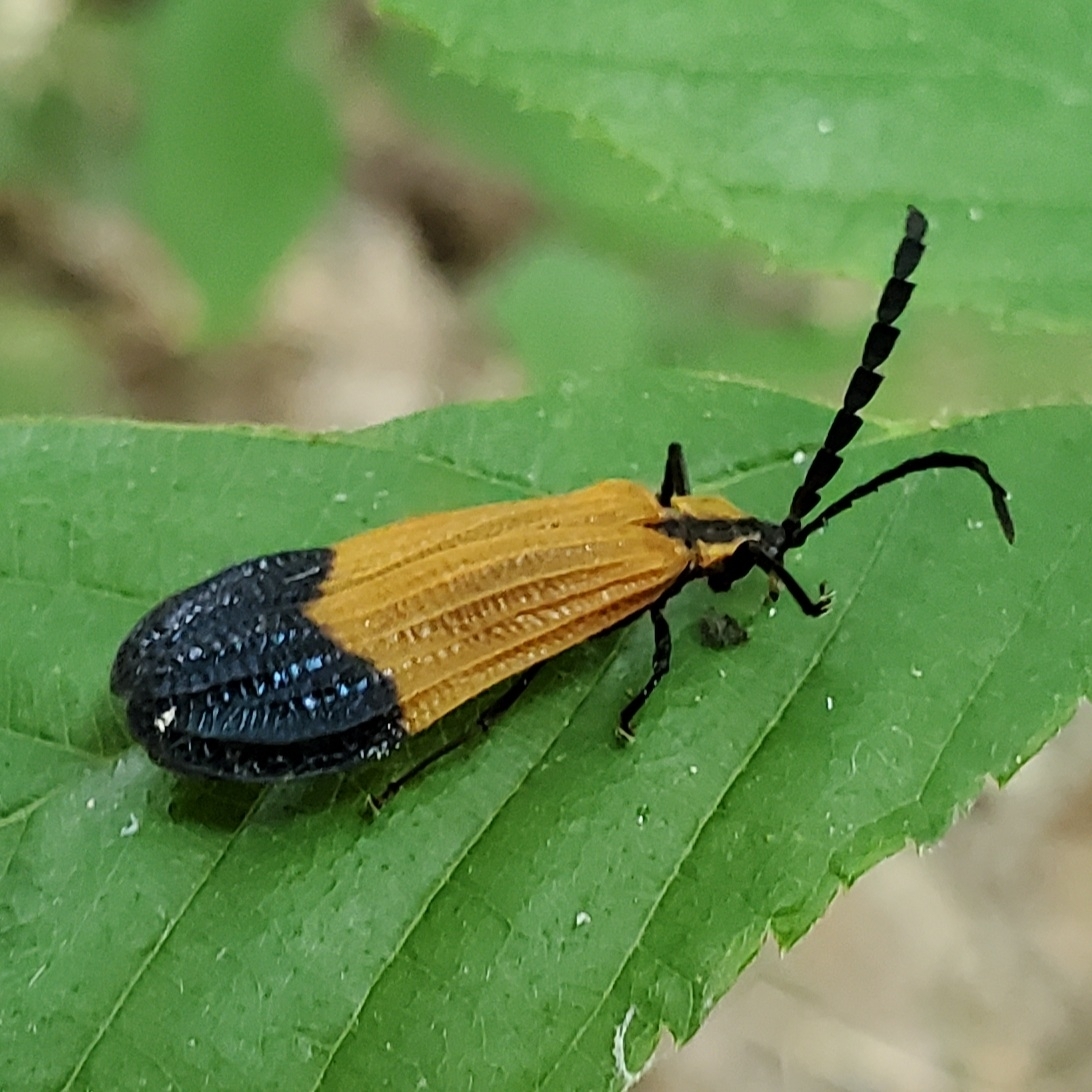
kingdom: Animalia
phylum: Arthropoda
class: Insecta
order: Coleoptera
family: Lycidae
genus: Calopteron
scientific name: Calopteron terminale
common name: End band net-winged beetle
